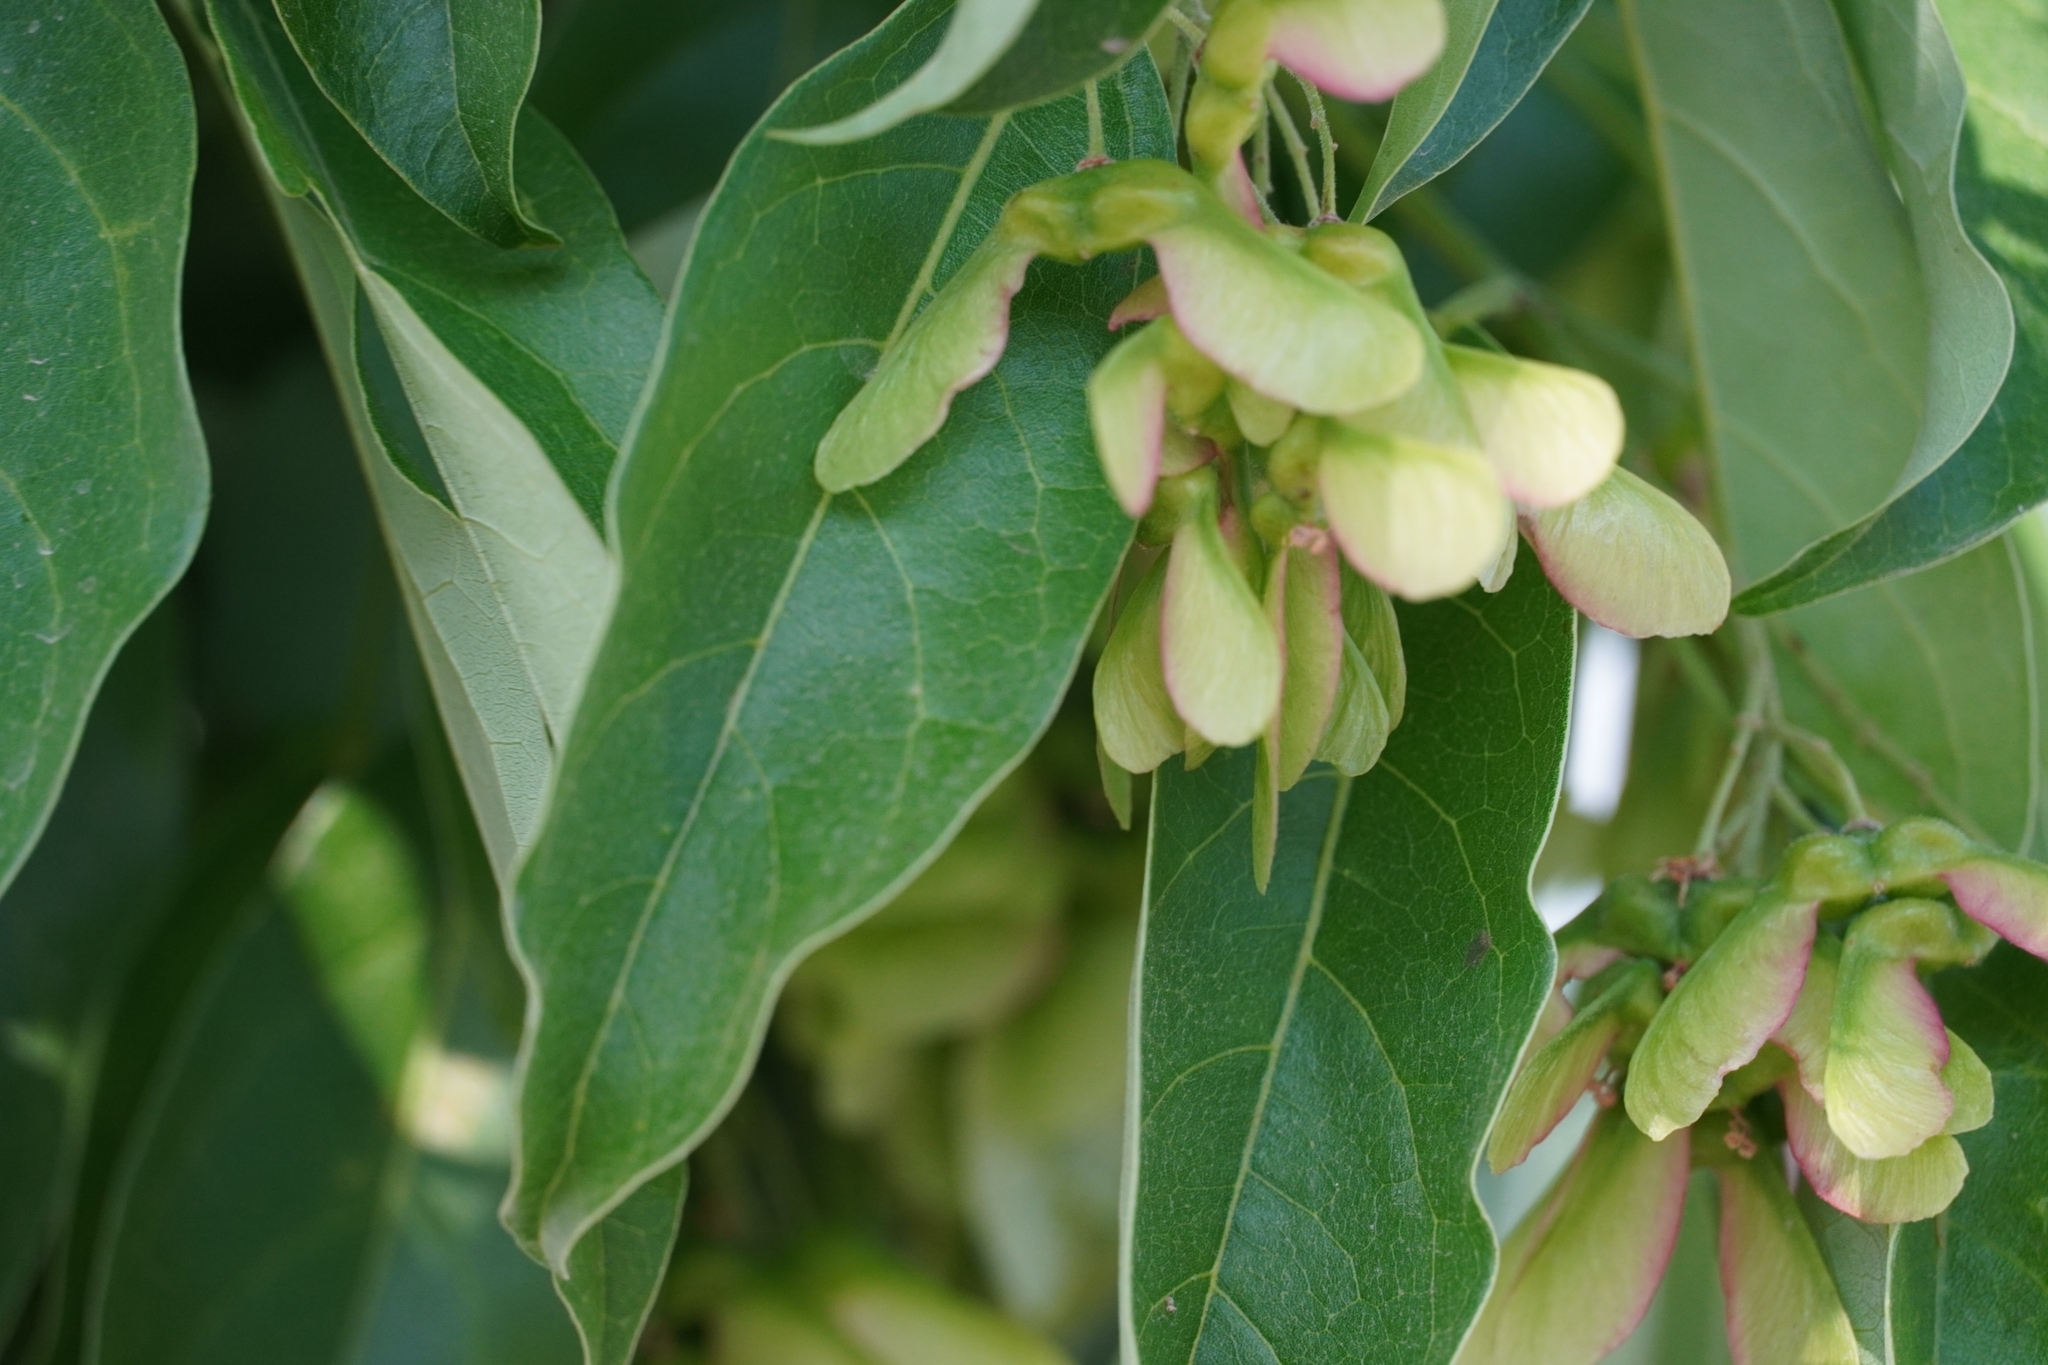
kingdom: Plantae
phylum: Tracheophyta
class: Magnoliopsida
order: Sapindales
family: Sapindaceae
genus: Acer
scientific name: Acer oblongum
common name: Himalayan maple
